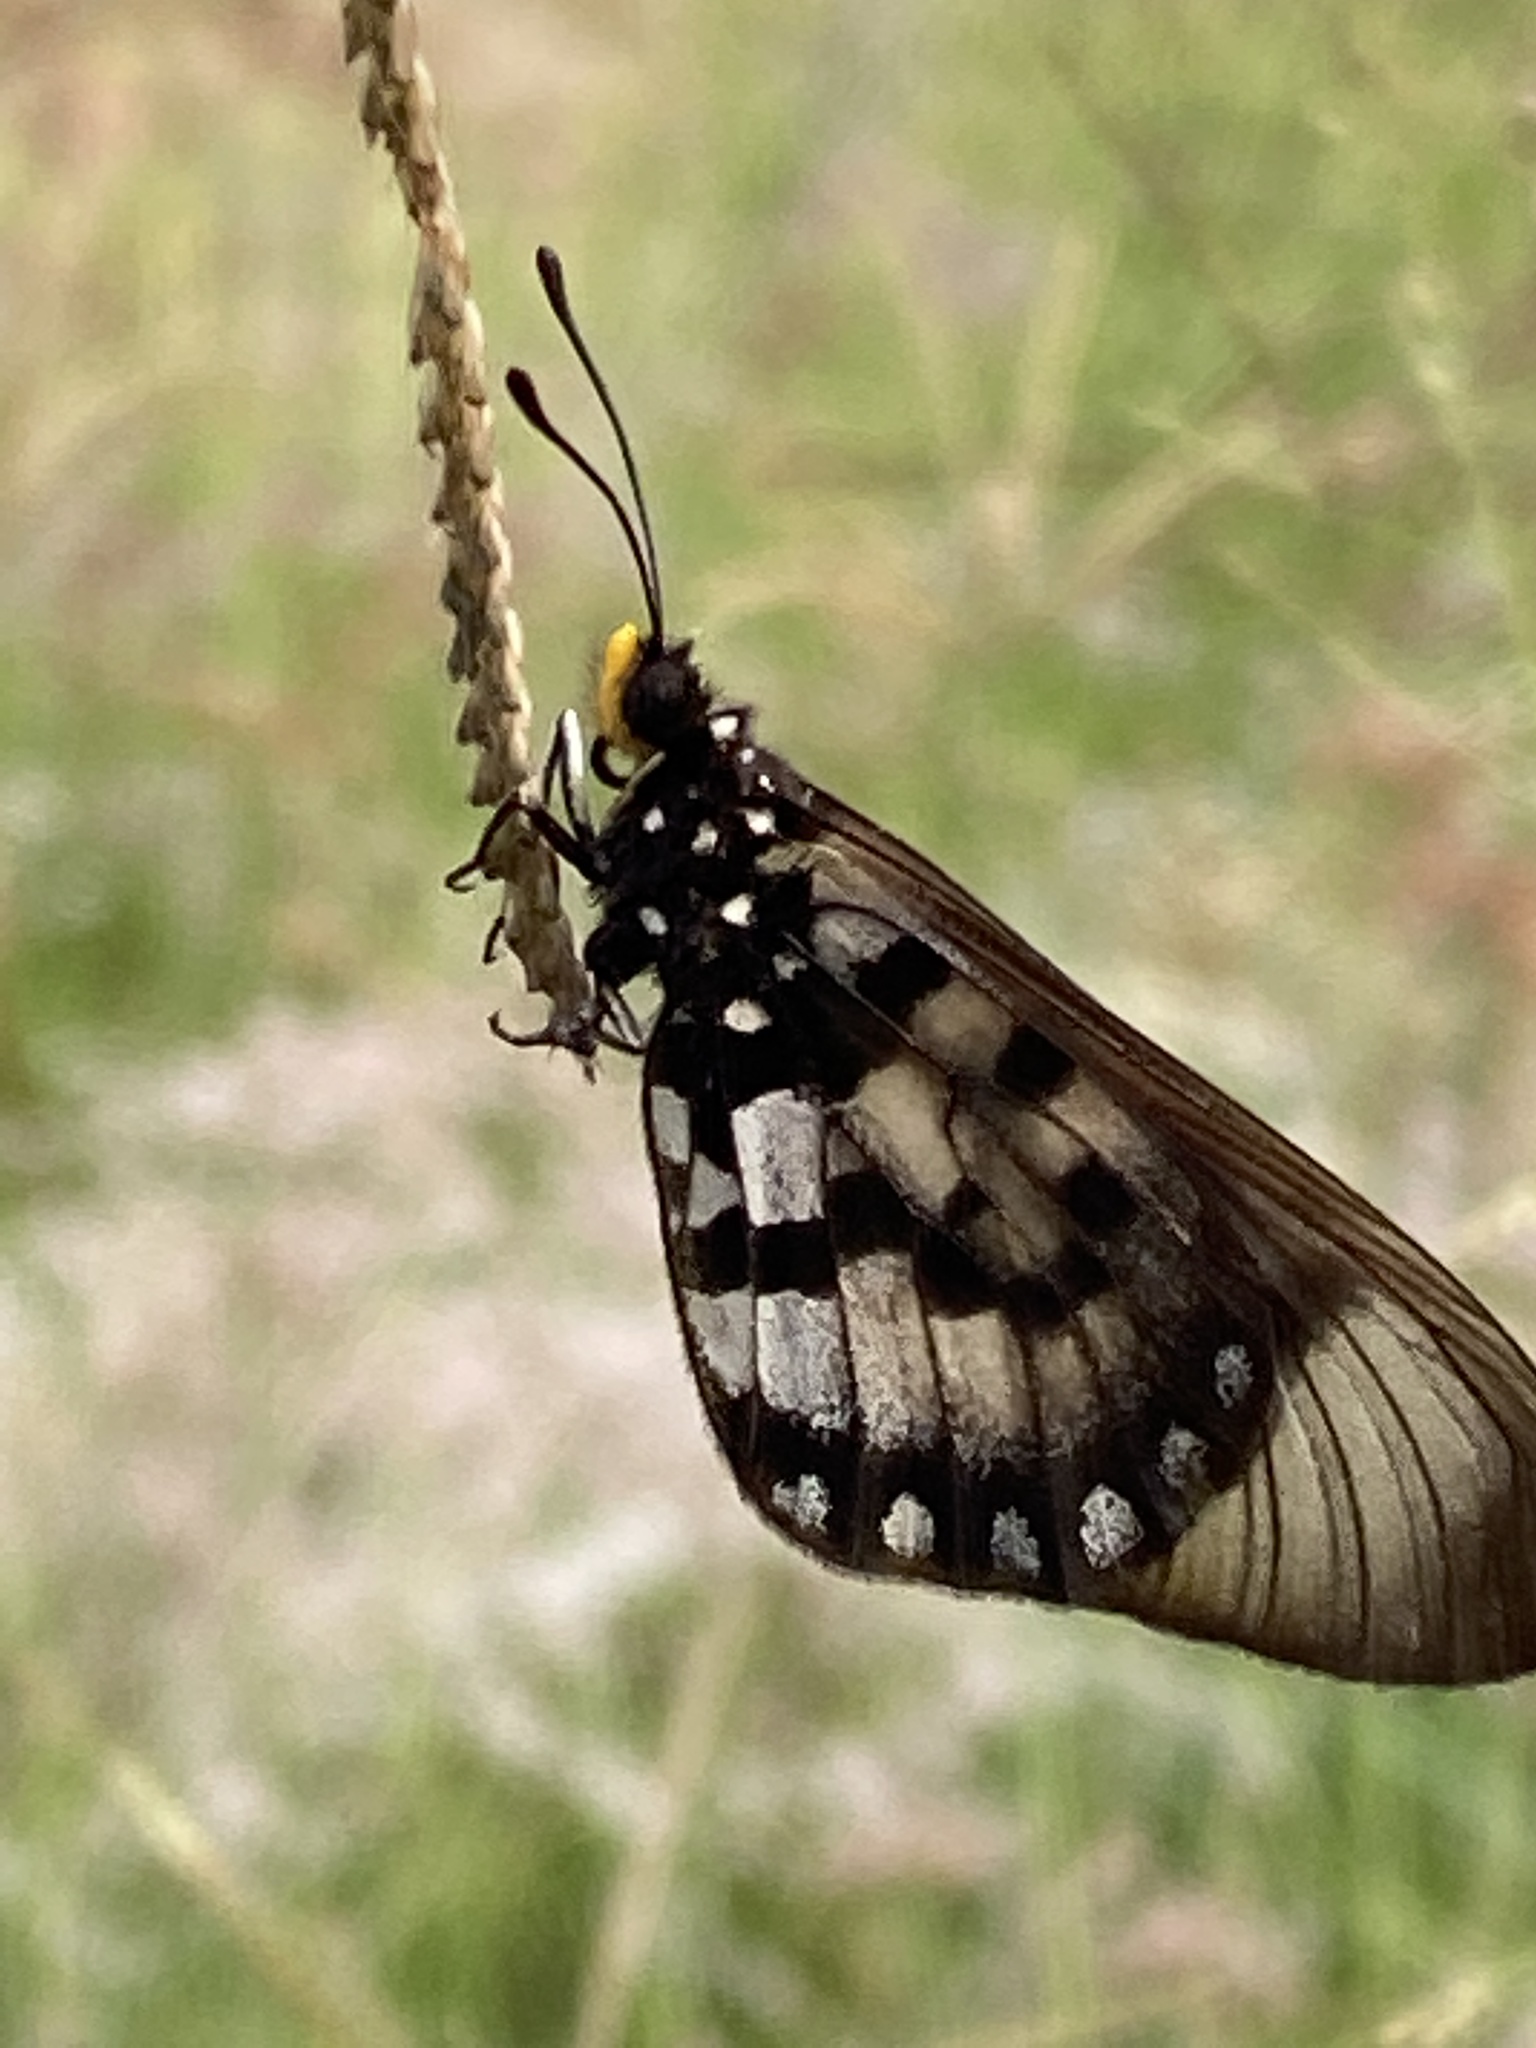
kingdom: Animalia
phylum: Arthropoda
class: Insecta
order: Lepidoptera
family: Nymphalidae
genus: Acraea
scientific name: Acraea andromacha
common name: Glasswing
